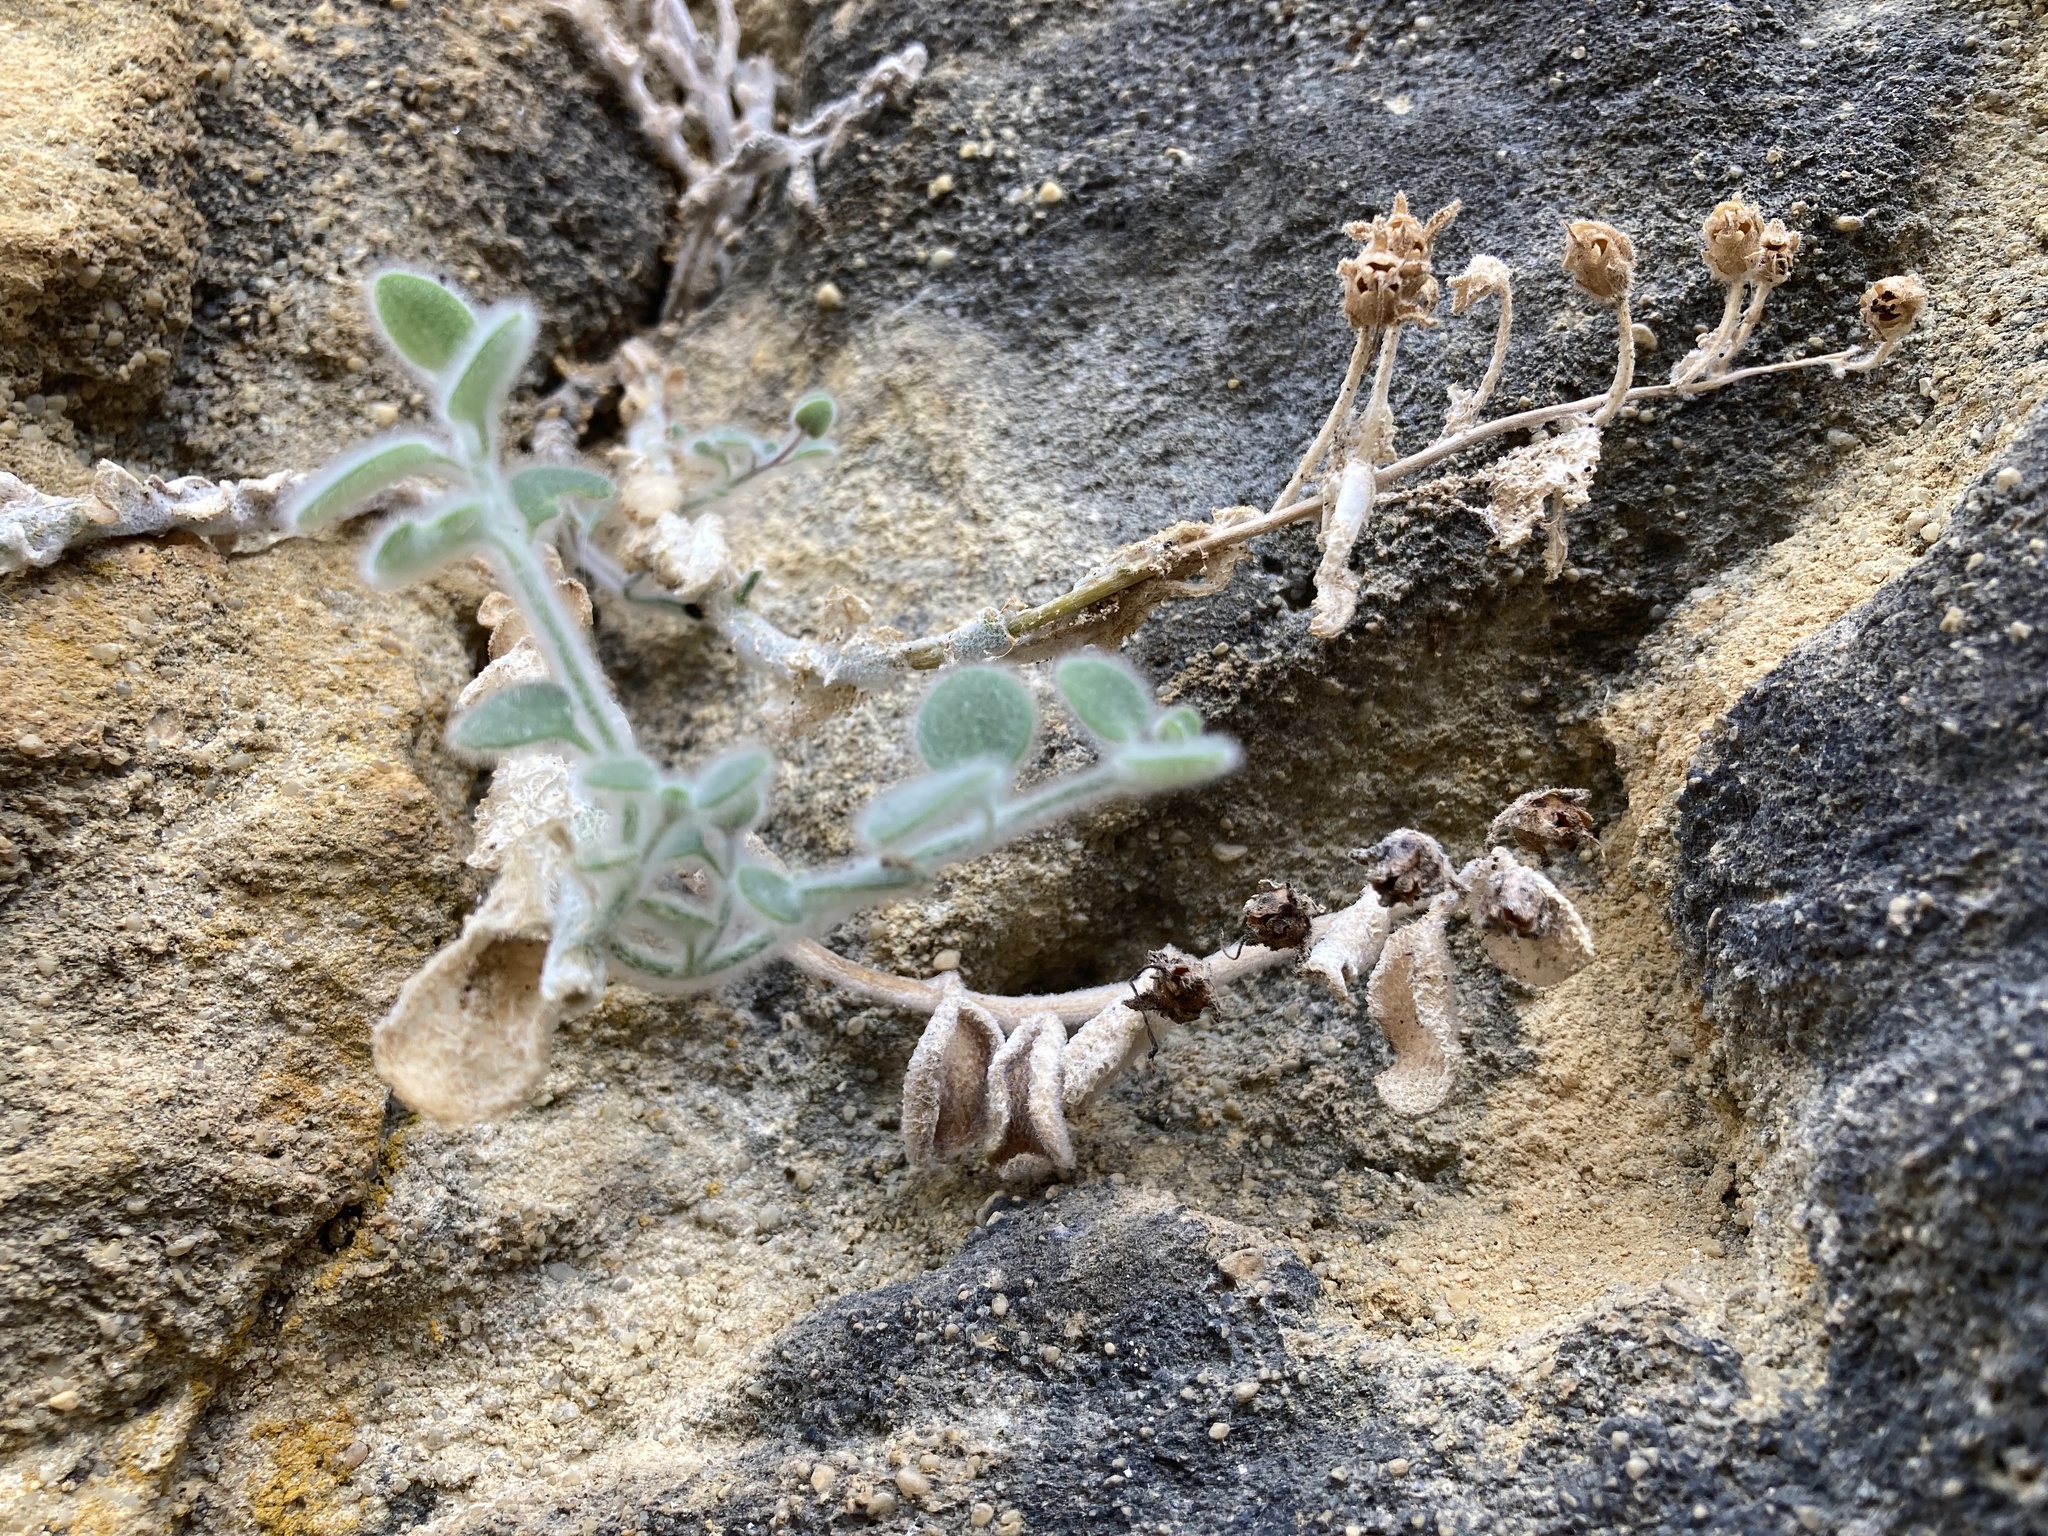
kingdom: Plantae
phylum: Tracheophyta
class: Magnoliopsida
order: Lamiales
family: Plantaginaceae
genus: Antirrhinum
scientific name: Antirrhinum molle
